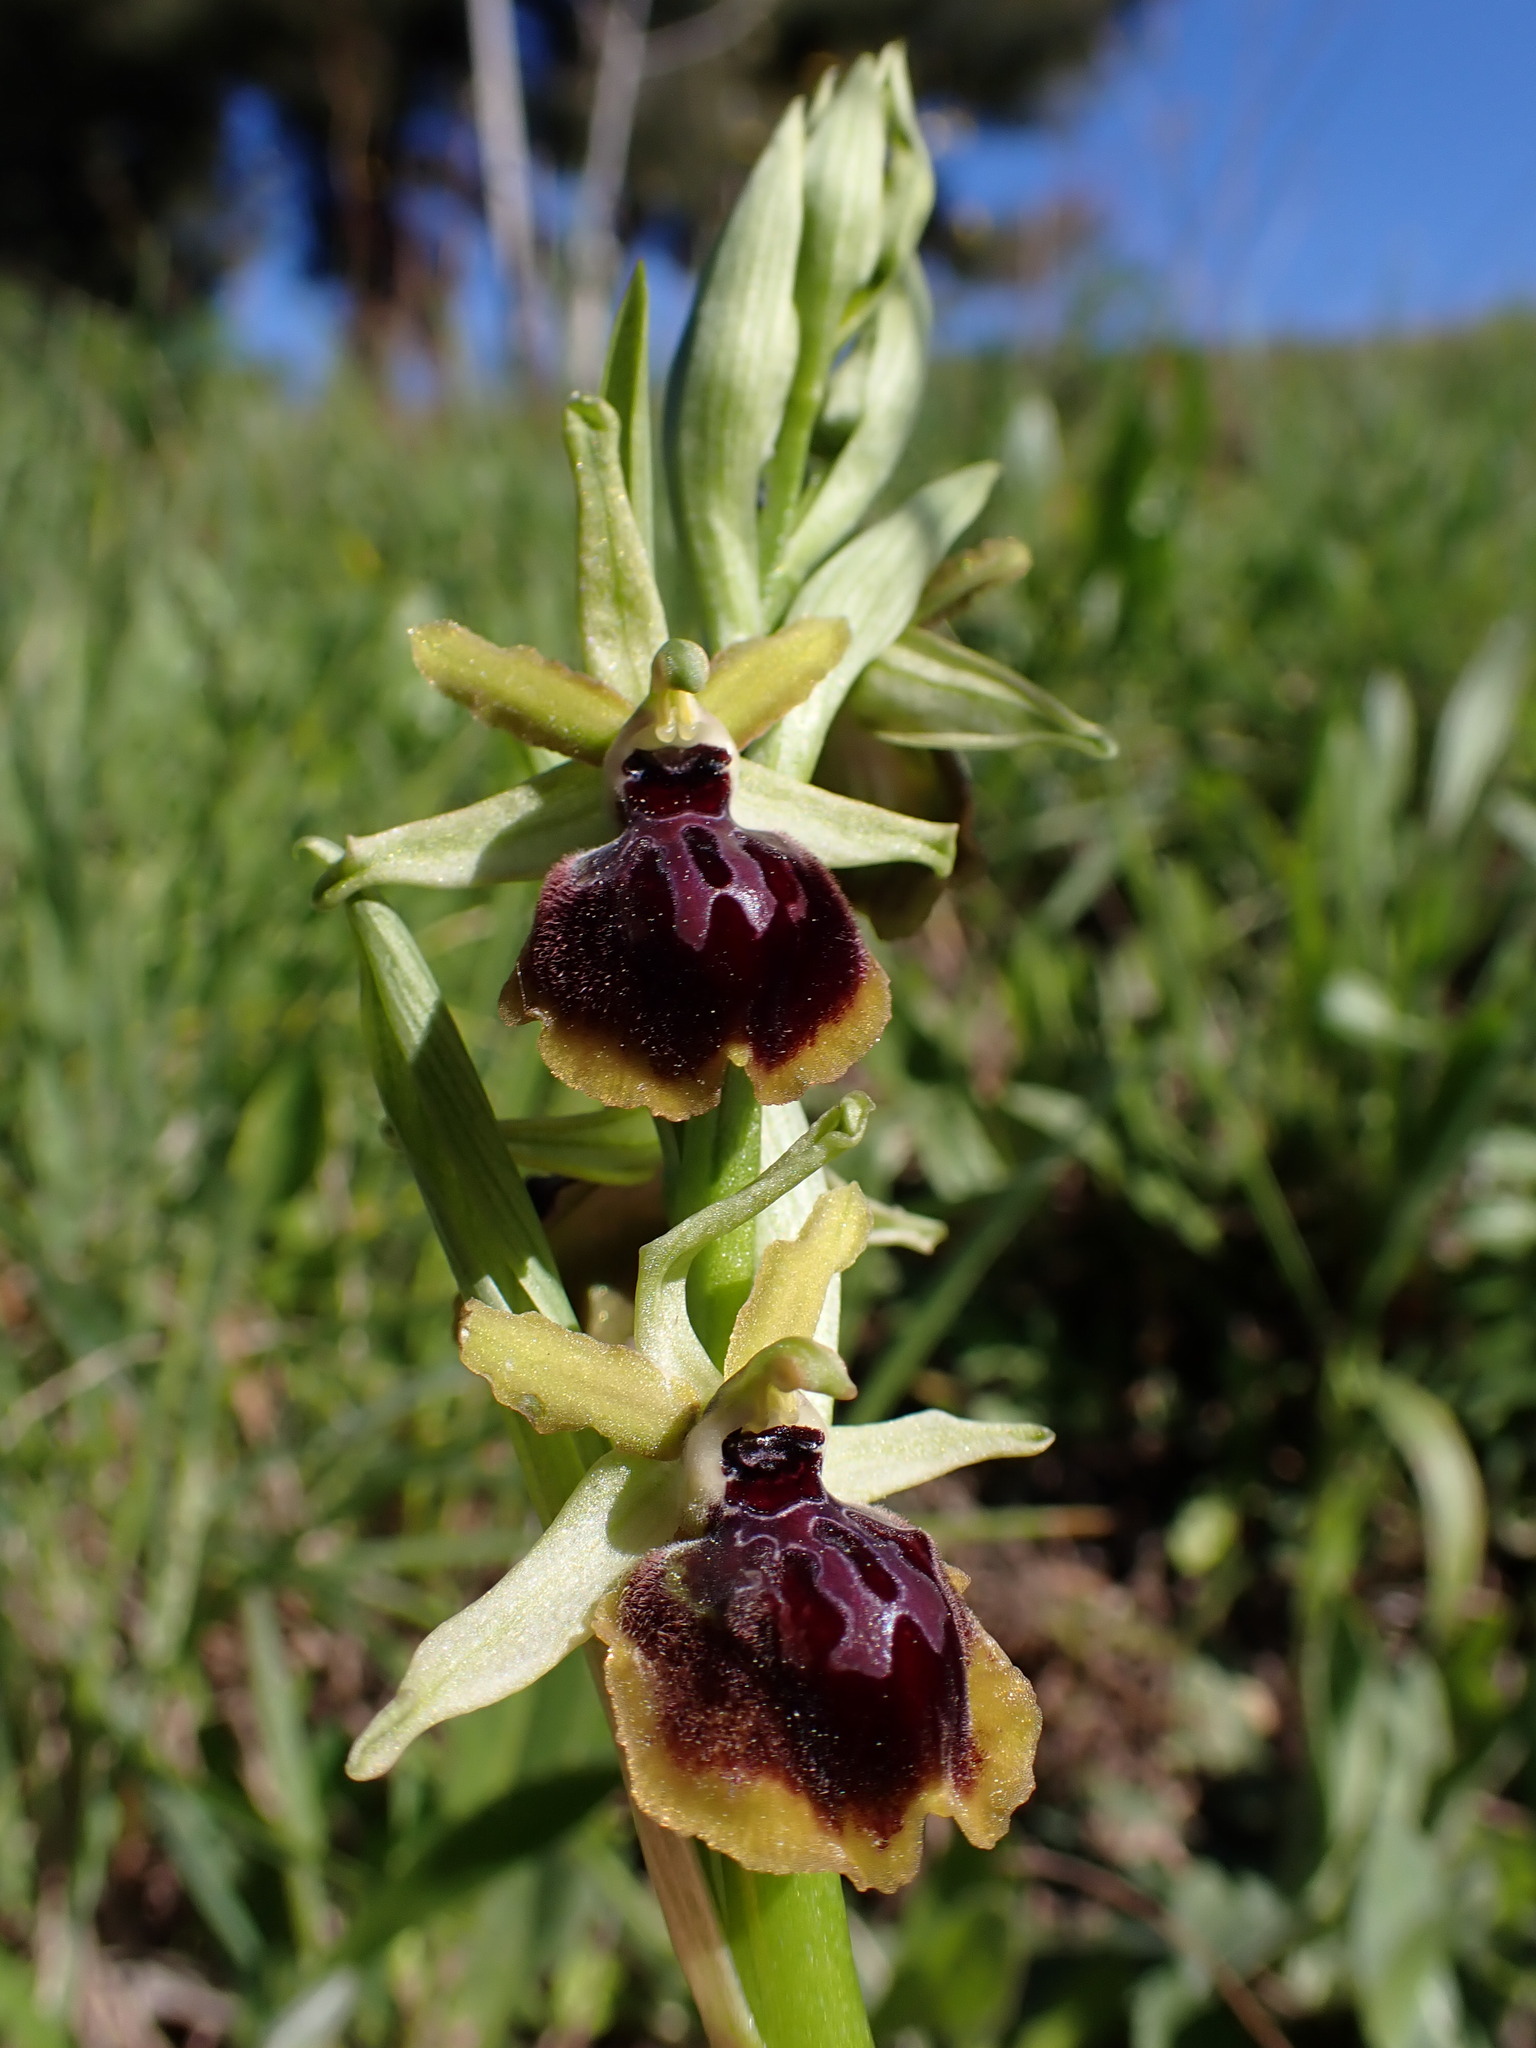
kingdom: Plantae
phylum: Tracheophyta
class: Liliopsida
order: Asparagales
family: Orchidaceae
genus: Ophrys
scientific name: Ophrys sphegodes
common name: Early spider-orchid
